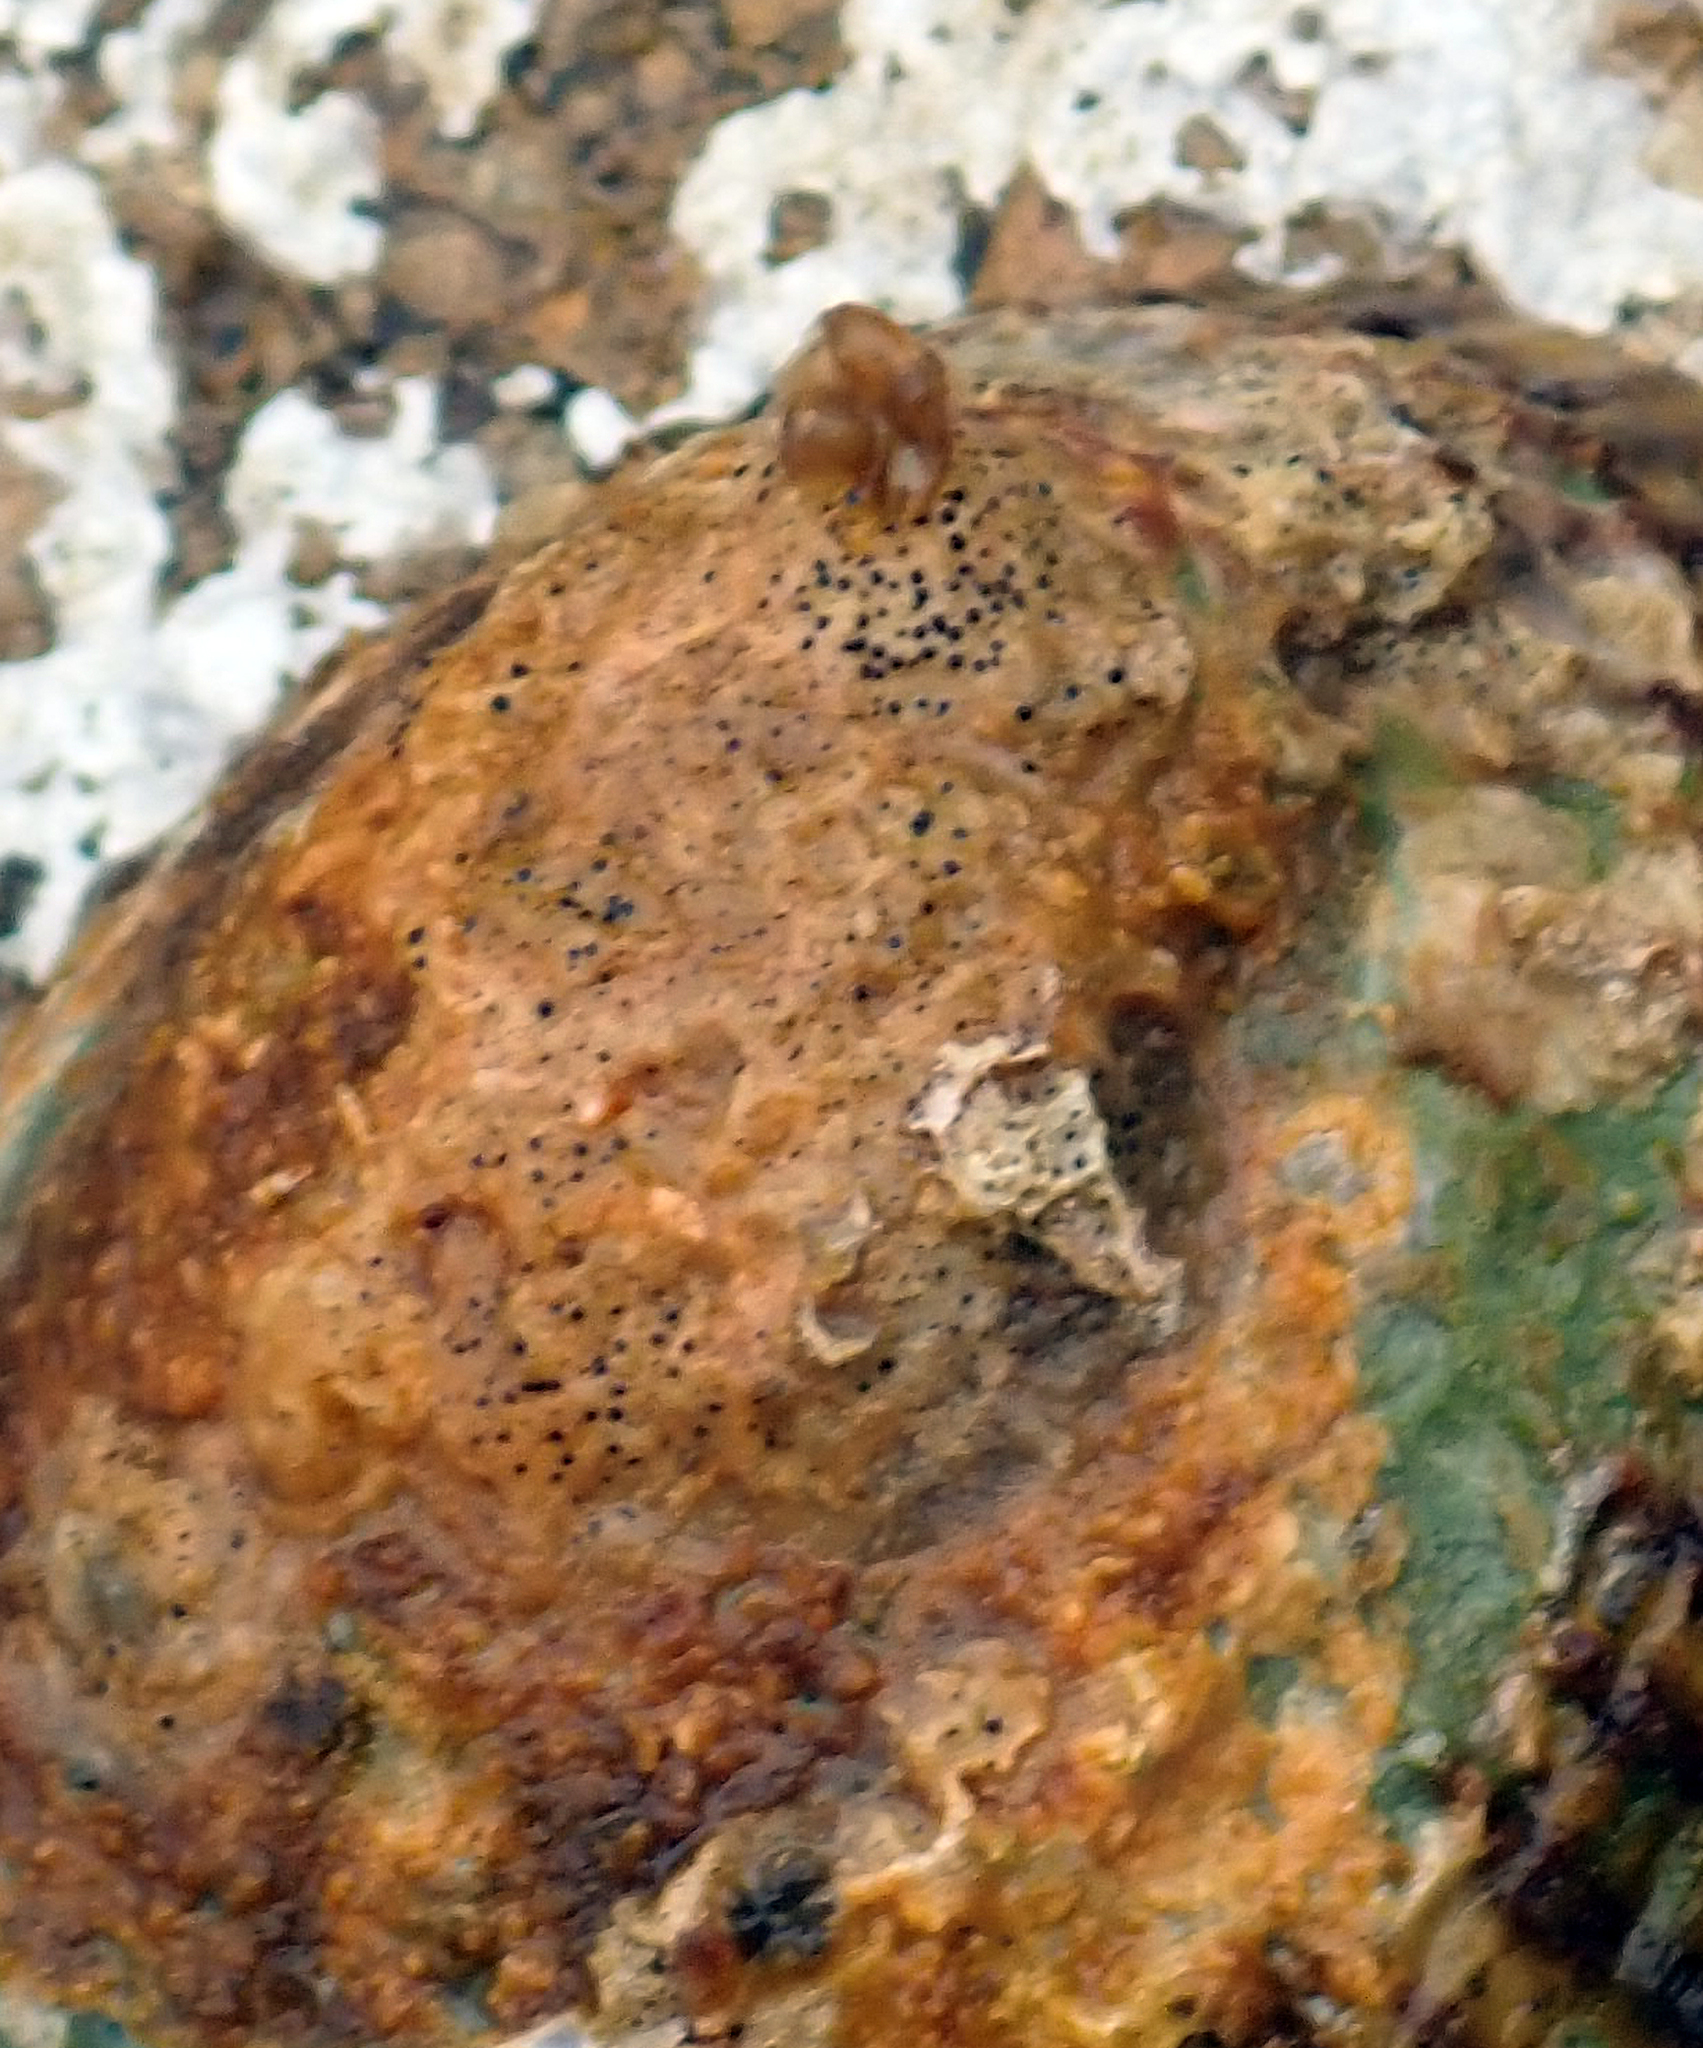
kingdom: Fungi
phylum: Ascomycota
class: Dothideomycetes
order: Collemopsidiales
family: Xanthopyreniaceae
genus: Collemopsidium
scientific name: Collemopsidium foveolatum
